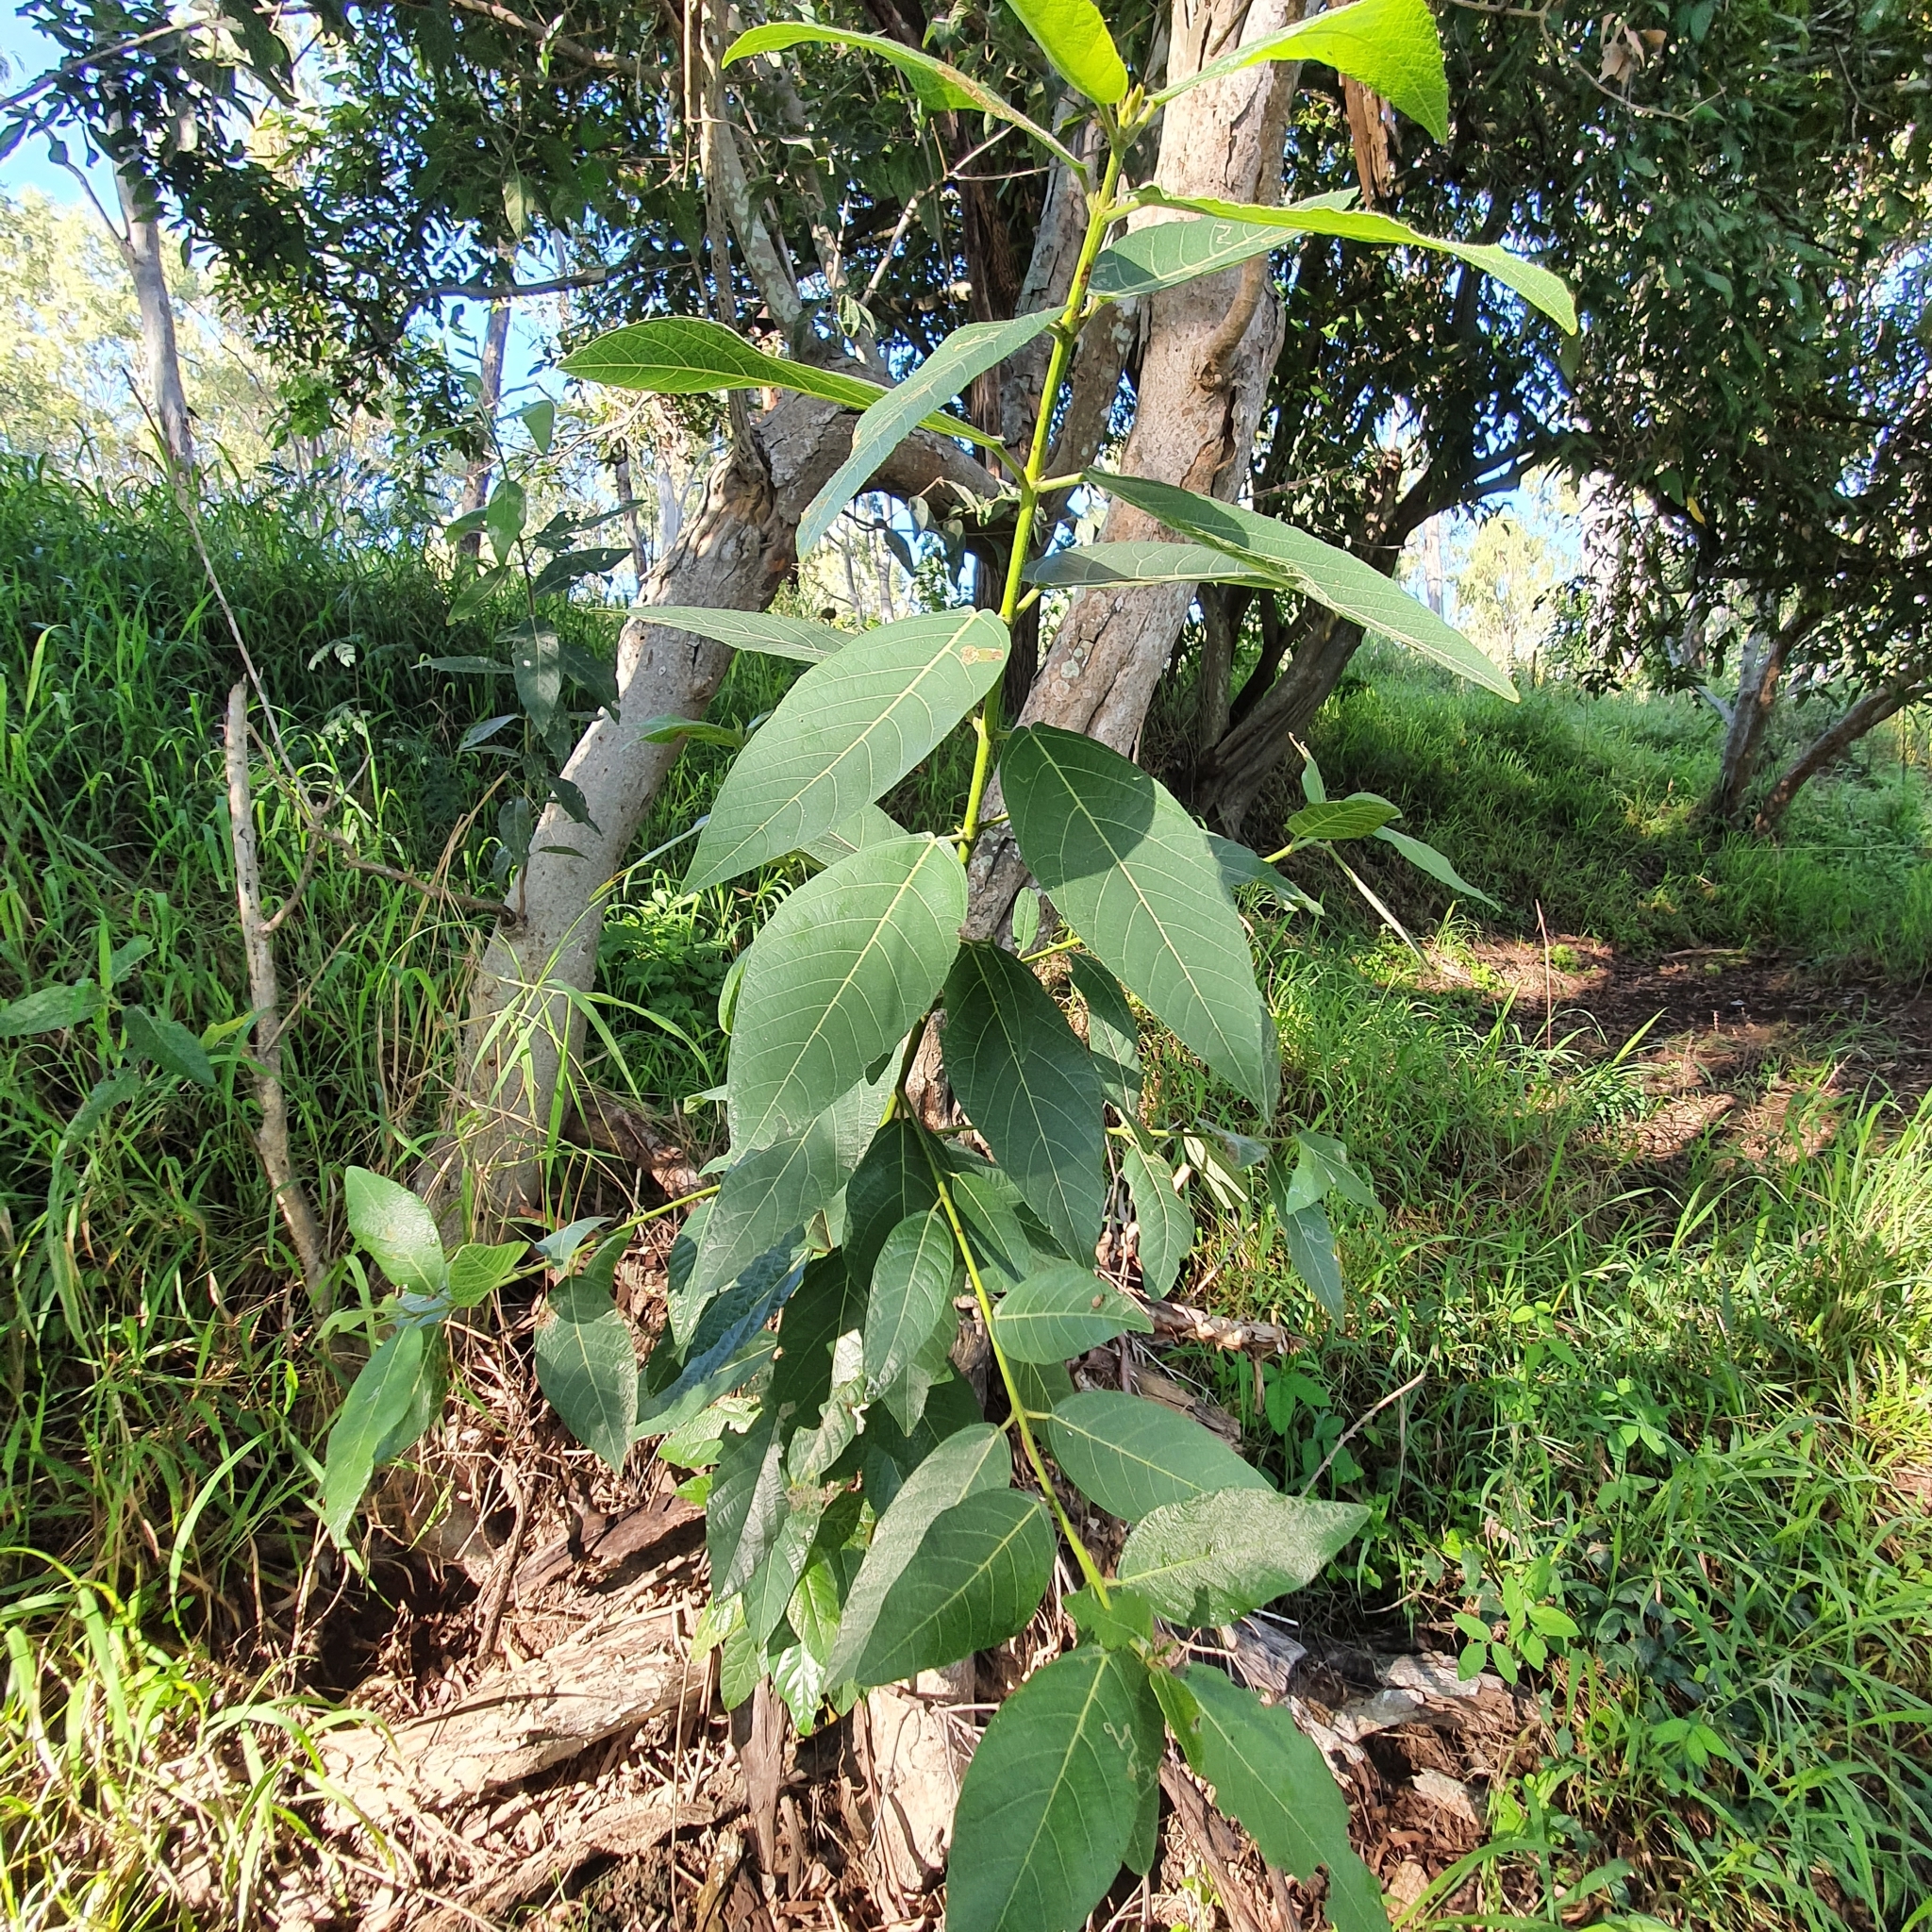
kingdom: Plantae
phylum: Tracheophyta
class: Magnoliopsida
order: Rosales
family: Moraceae
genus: Ficus
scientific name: Ficus opposita
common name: Figwood
